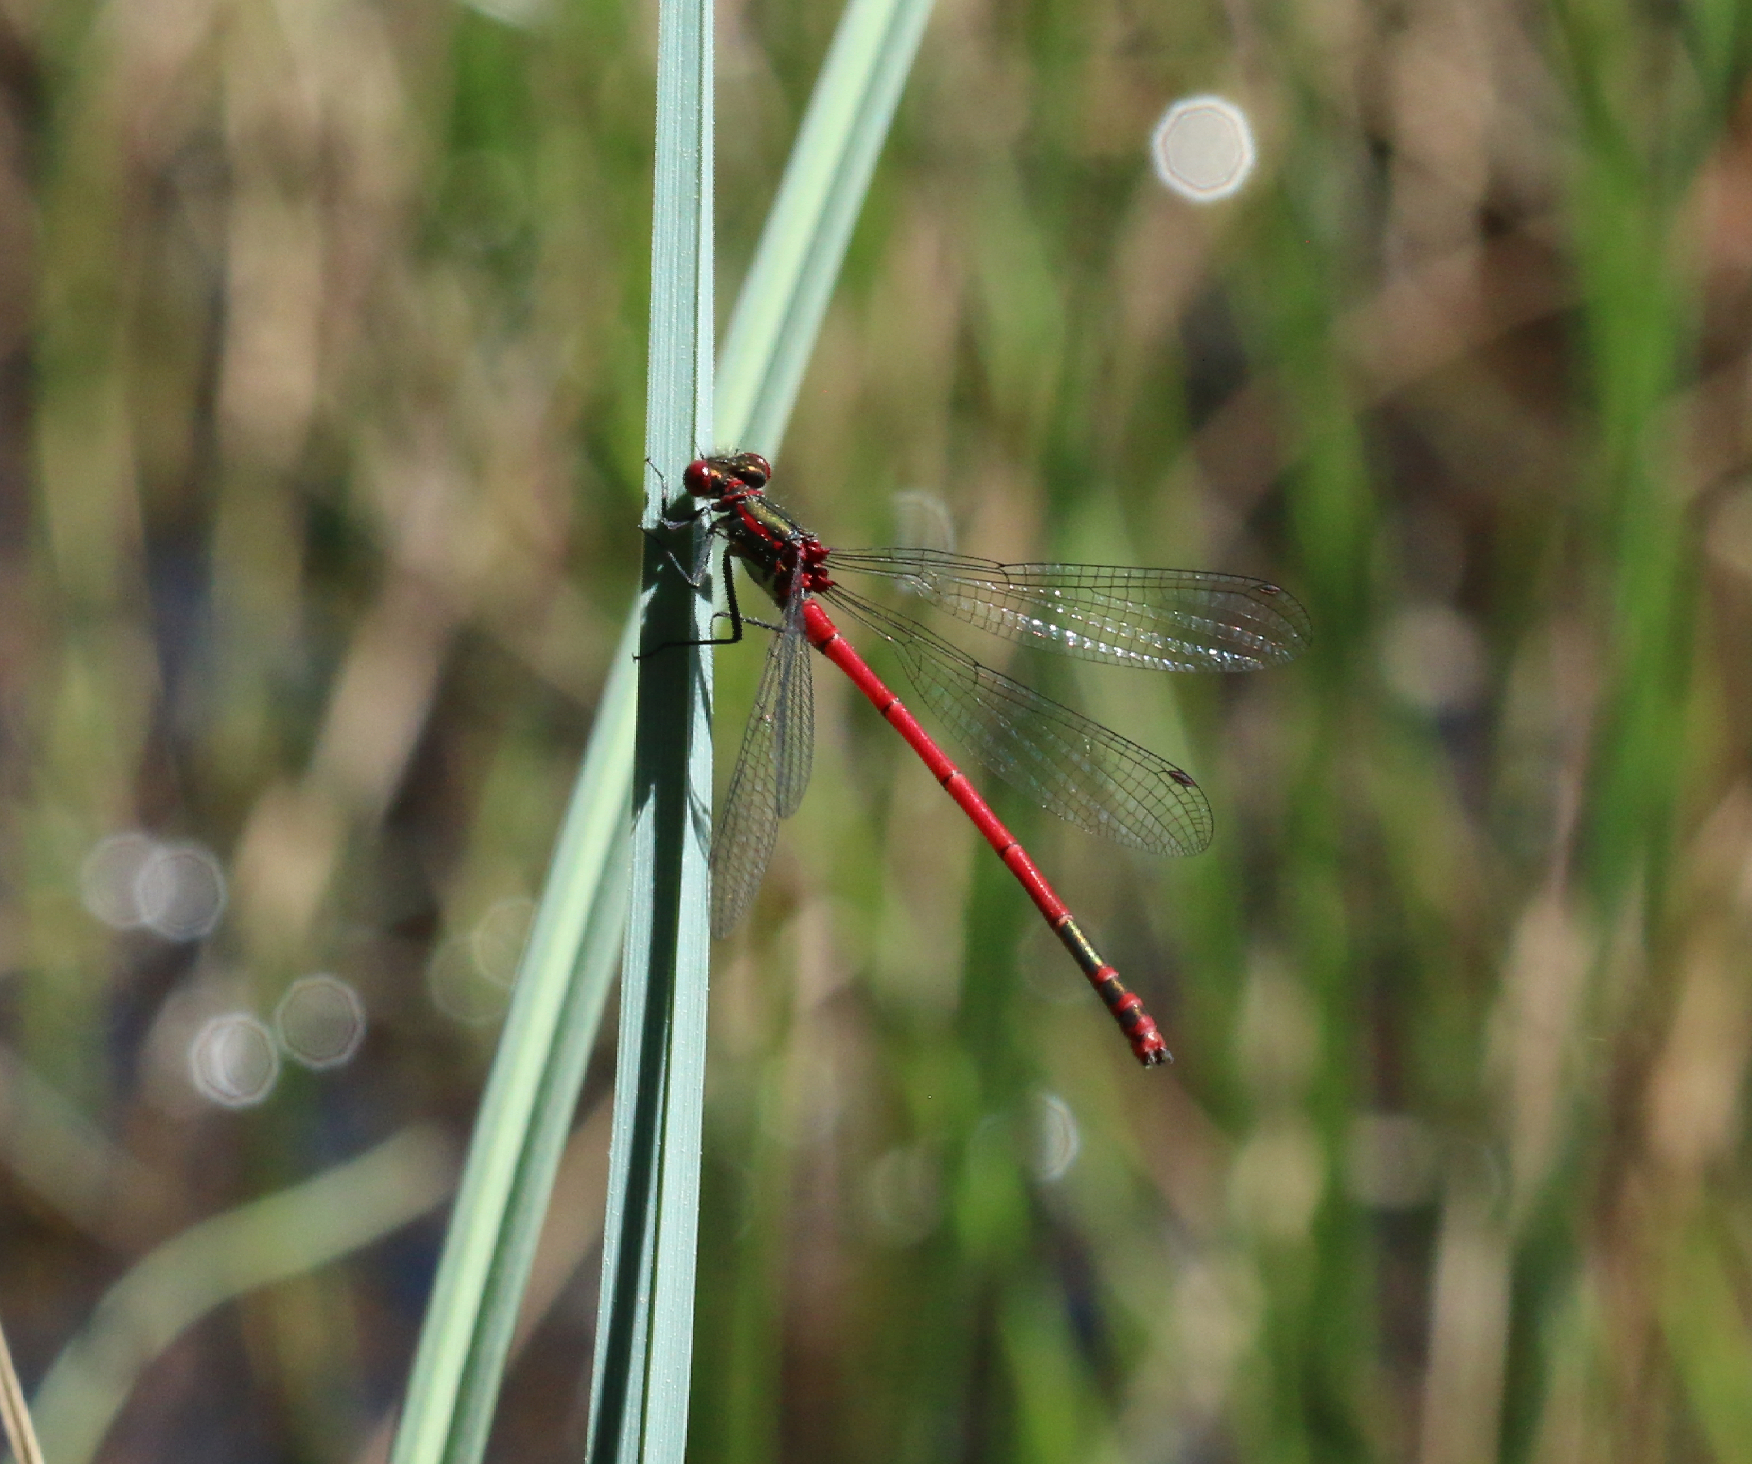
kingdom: Animalia
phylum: Arthropoda
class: Insecta
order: Odonata
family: Coenagrionidae
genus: Pyrrhosoma
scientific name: Pyrrhosoma nymphula
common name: Large red damsel
